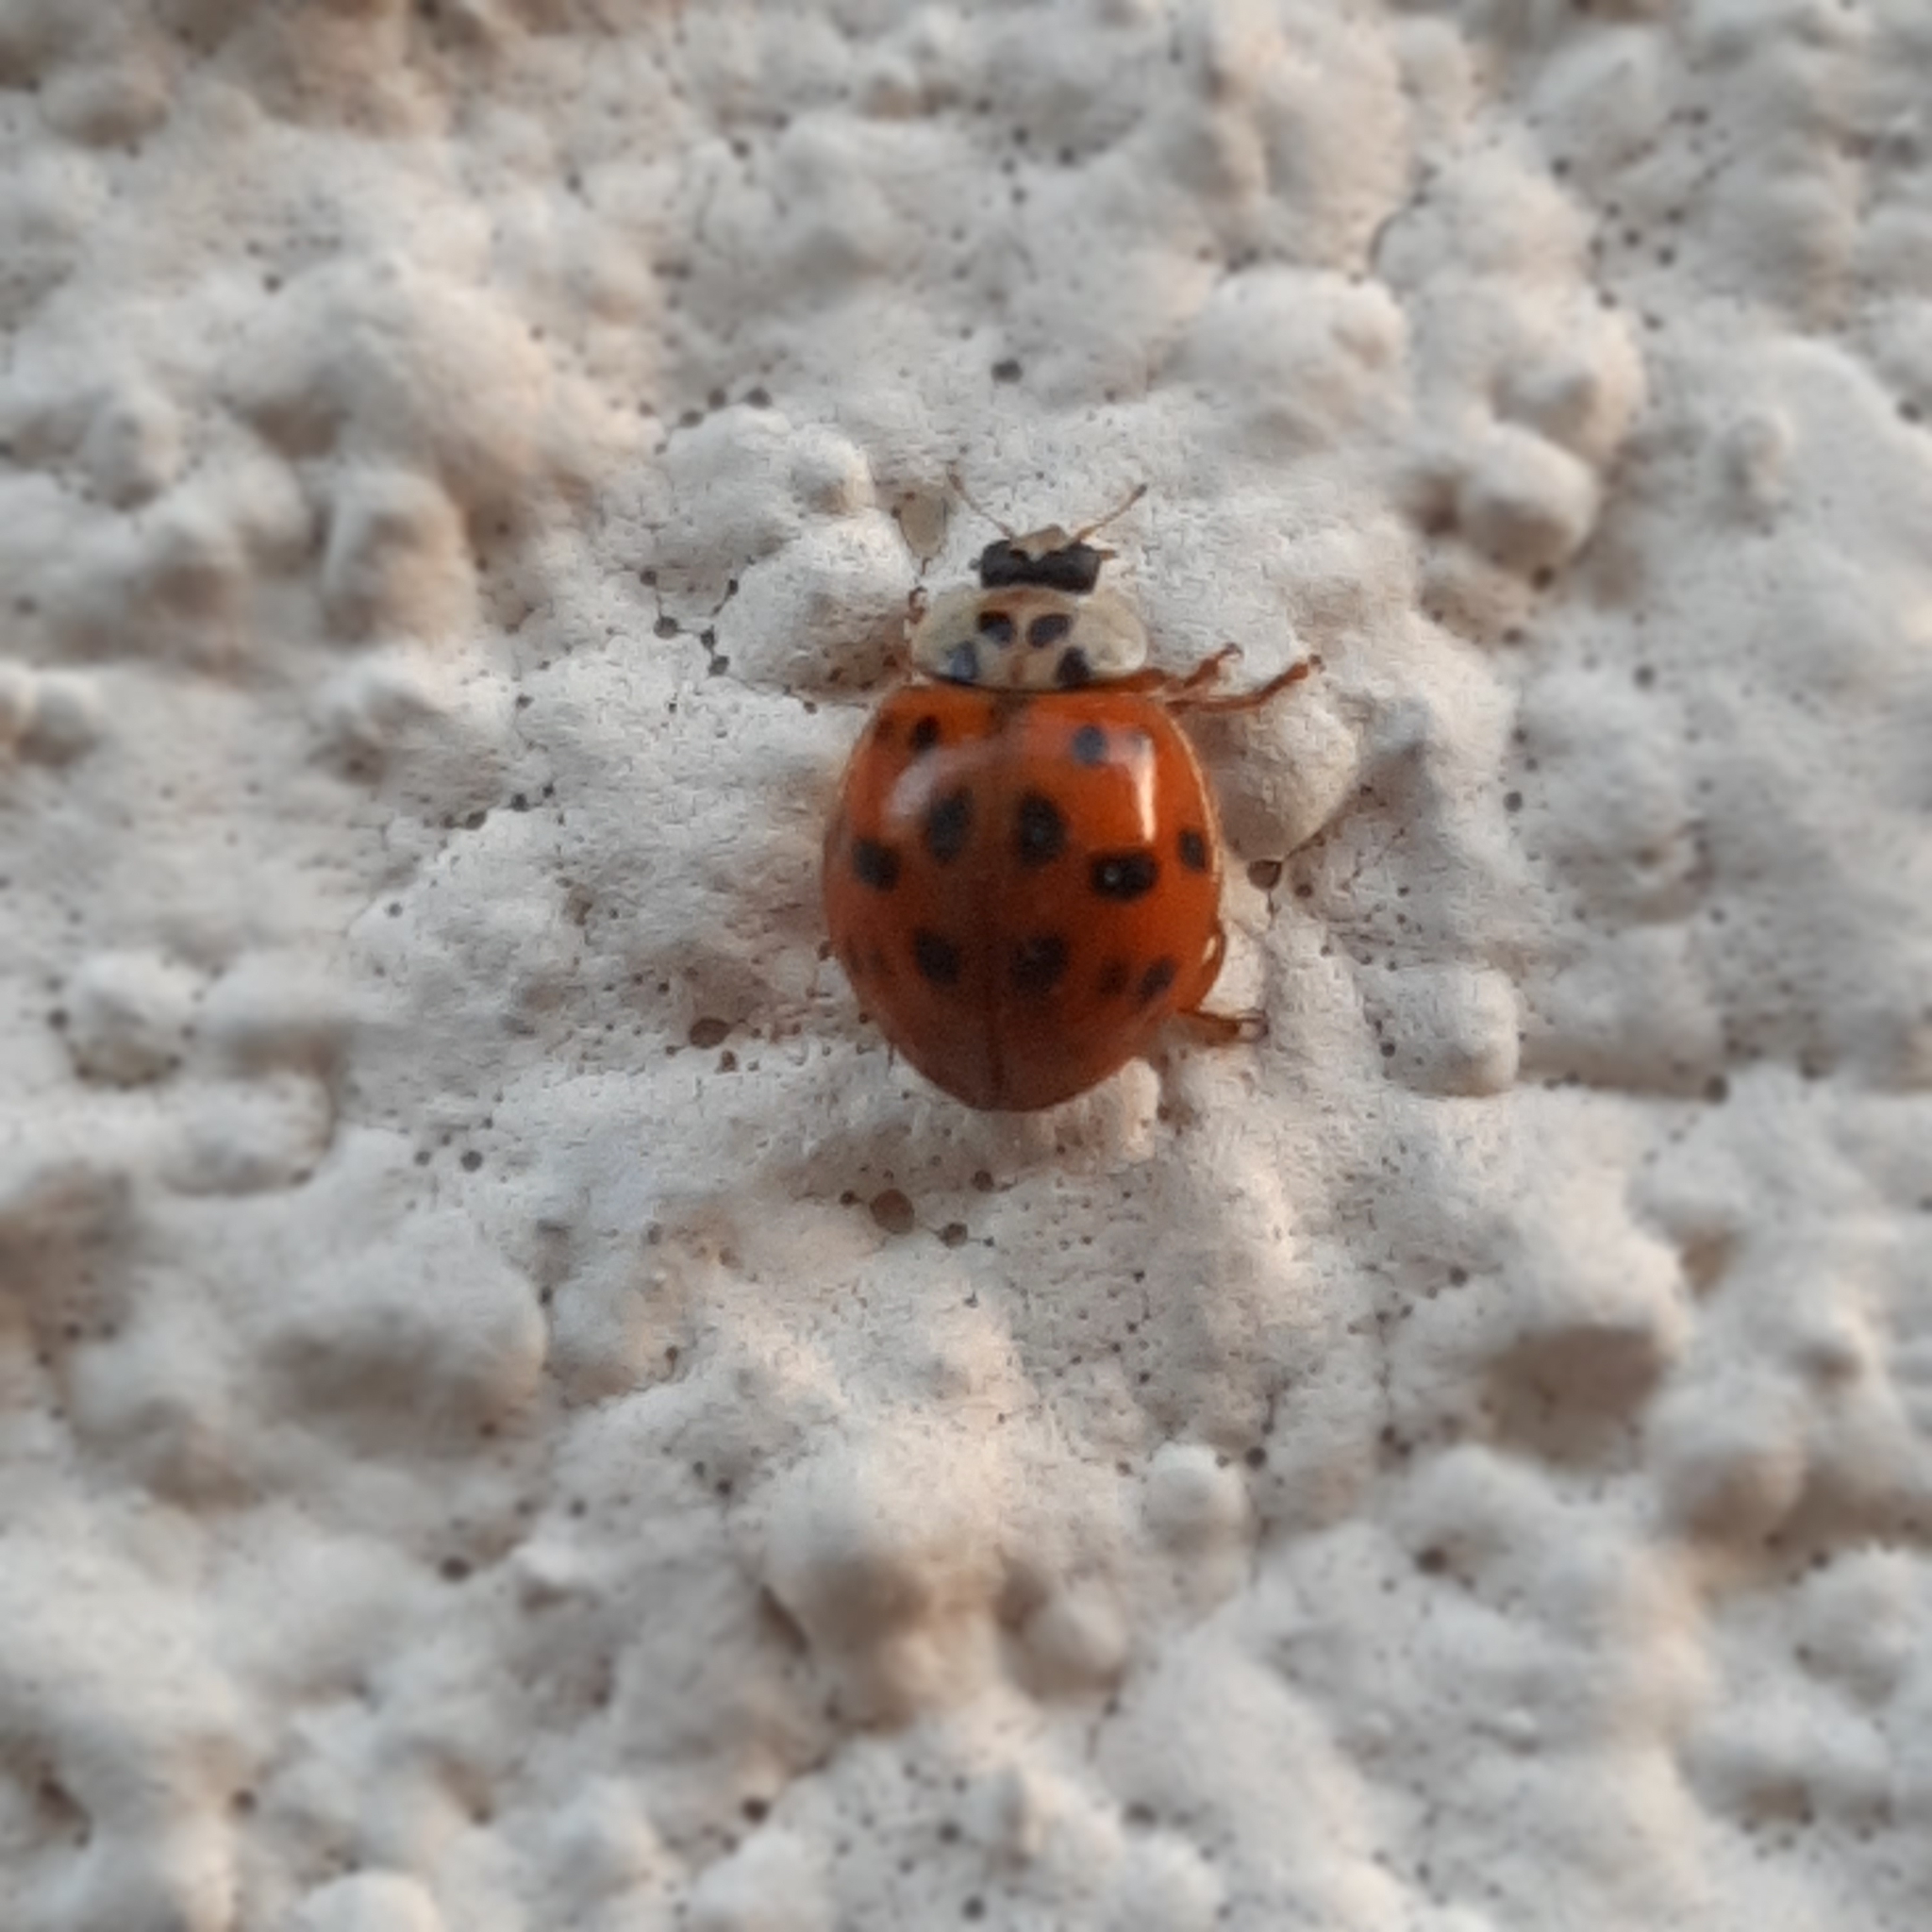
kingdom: Animalia
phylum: Arthropoda
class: Insecta
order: Coleoptera
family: Coccinellidae
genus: Harmonia
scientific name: Harmonia axyridis
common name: Harlequin ladybird
